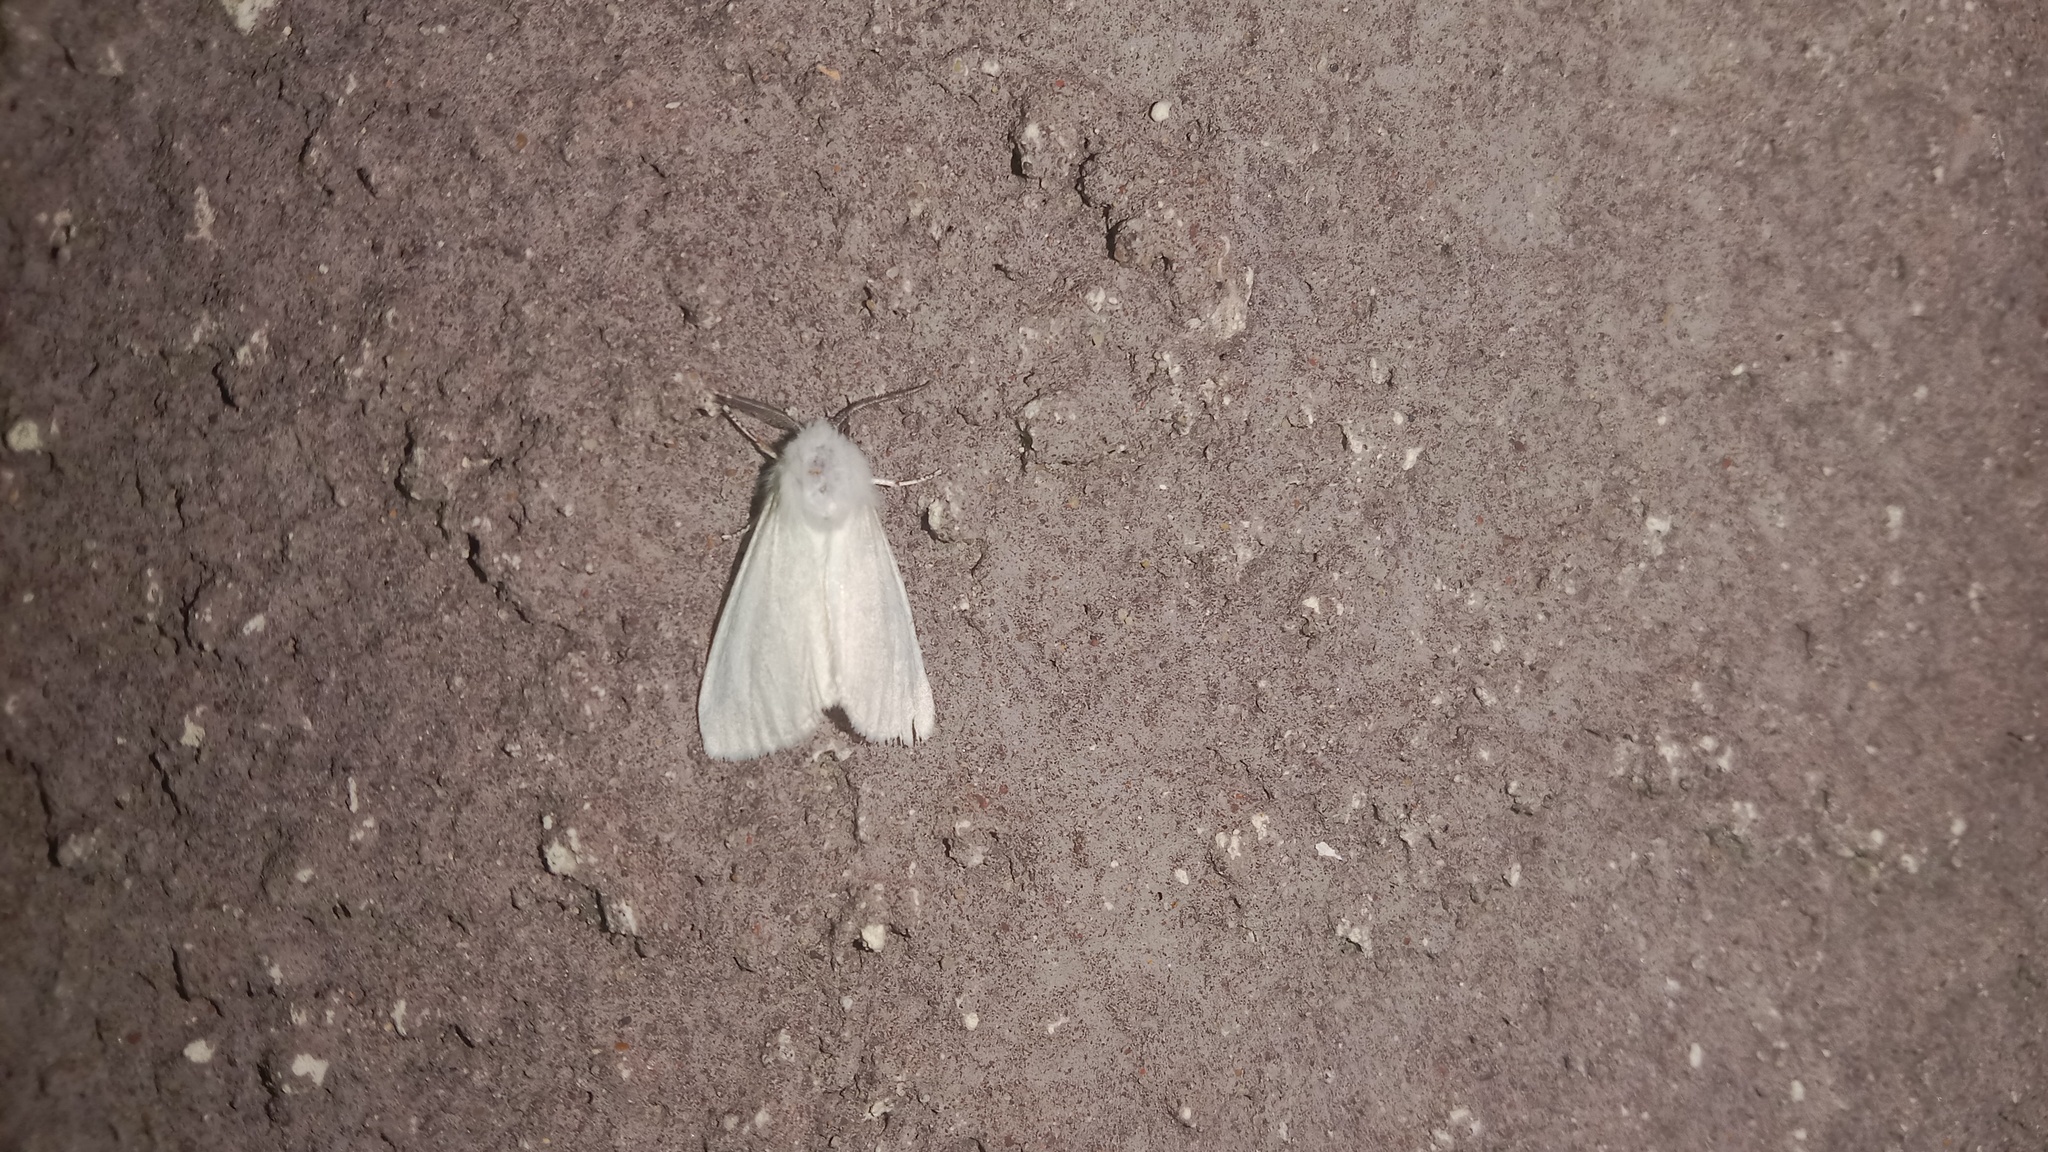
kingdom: Animalia
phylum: Arthropoda
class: Insecta
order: Lepidoptera
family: Erebidae
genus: Hyphantria
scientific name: Hyphantria cunea
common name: American white moth
